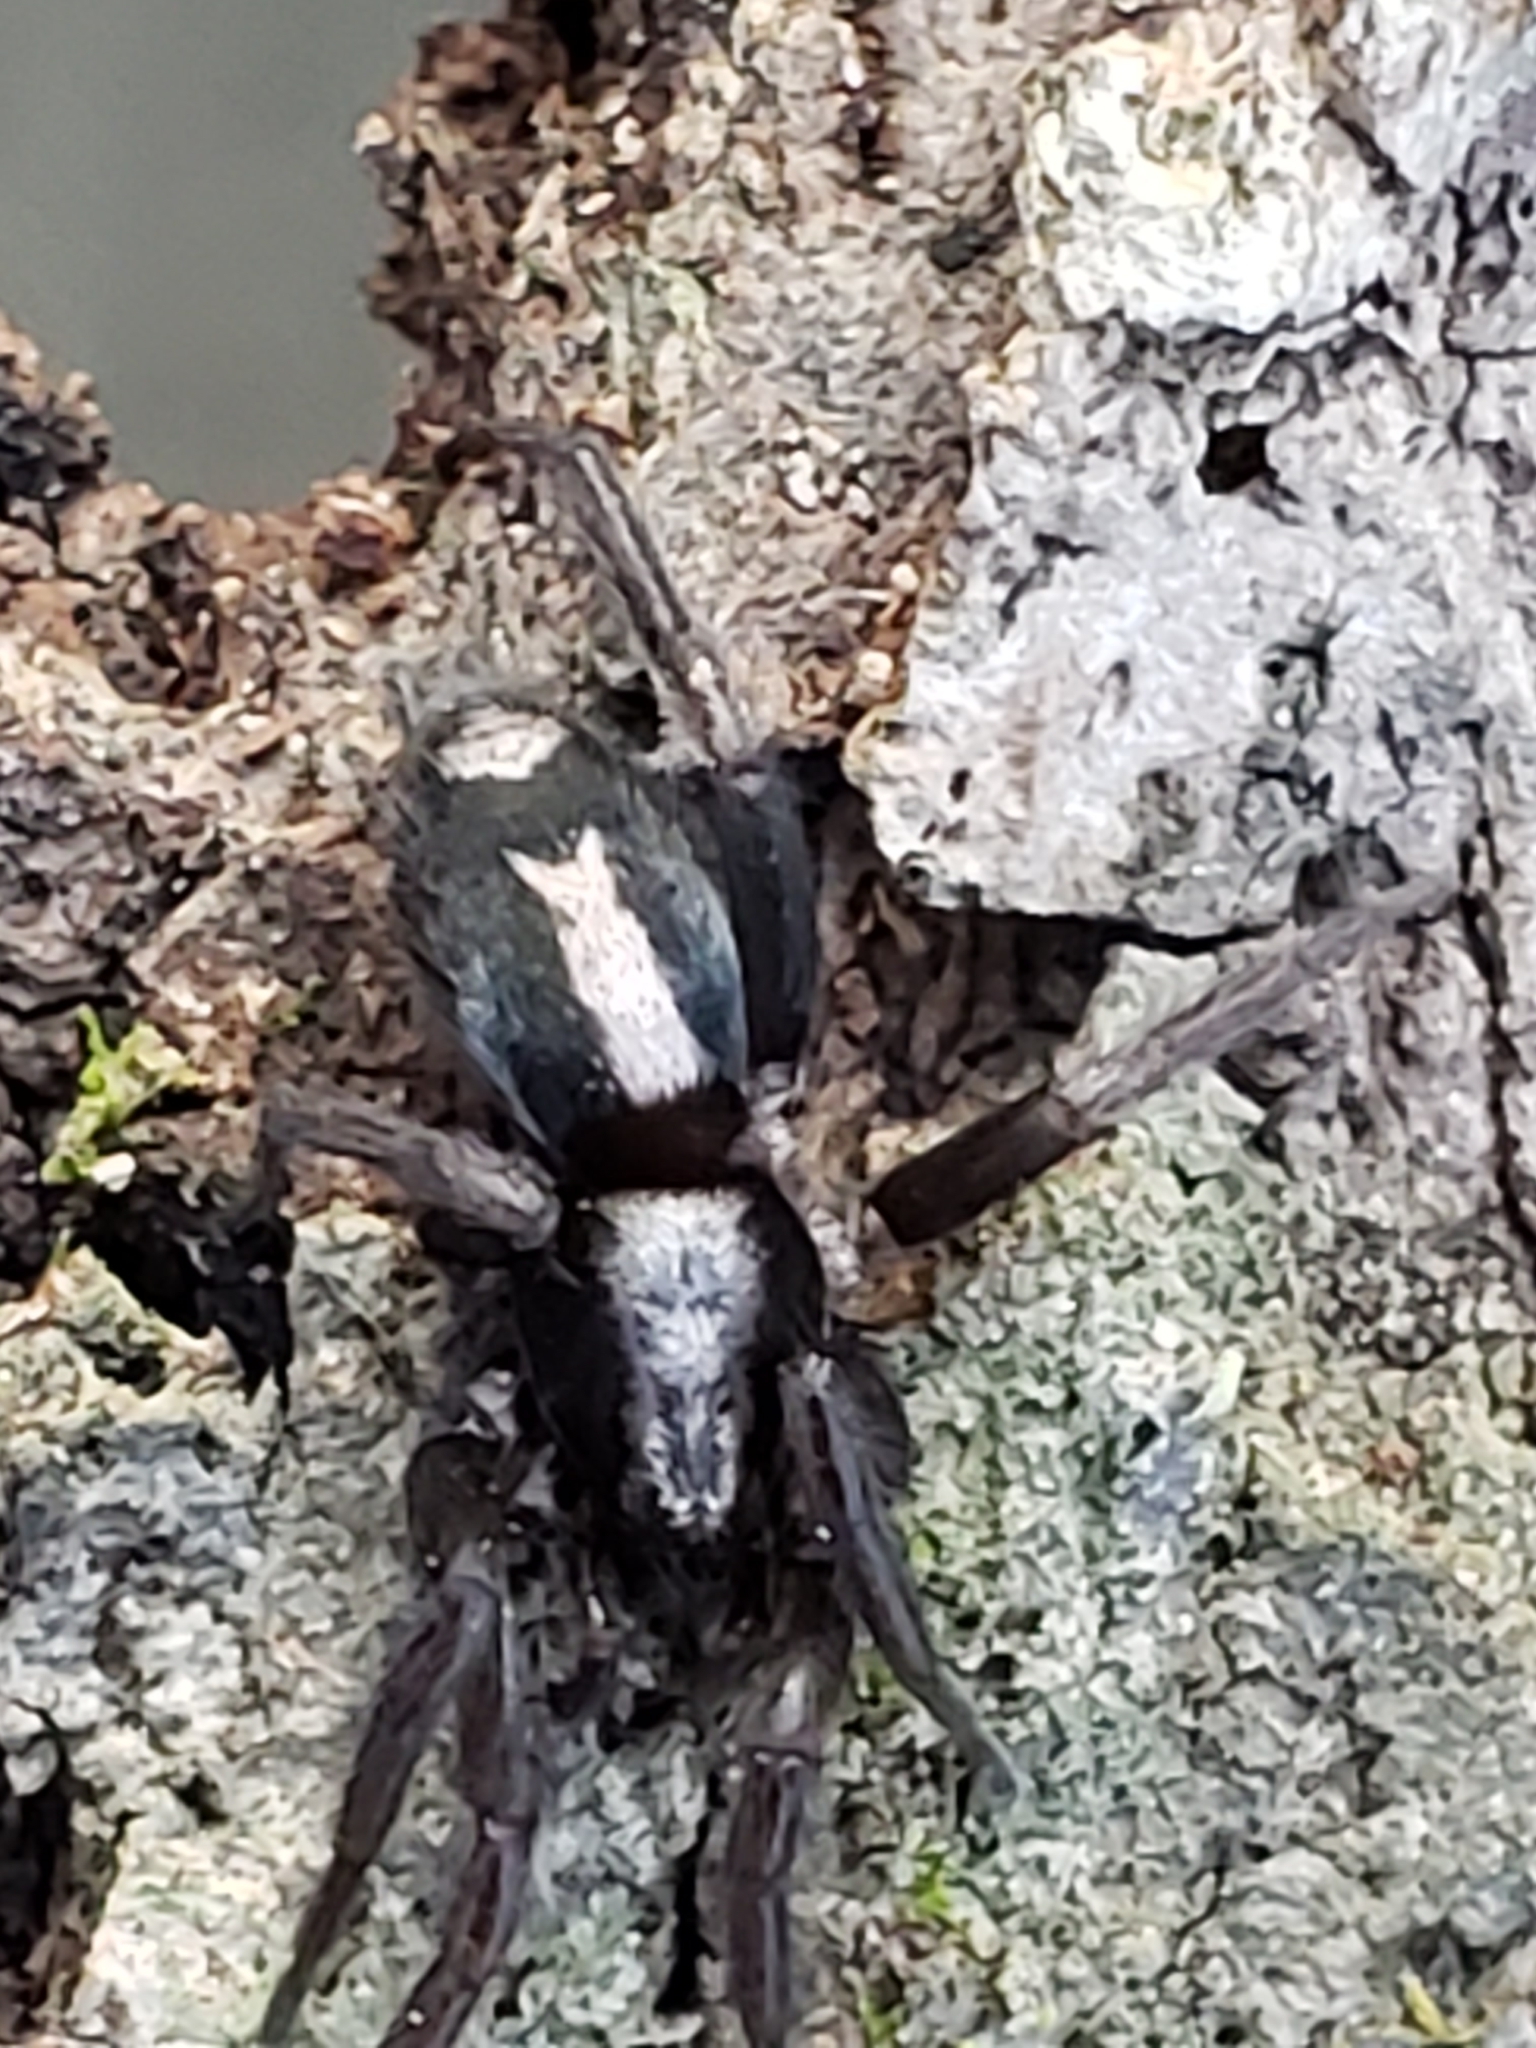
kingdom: Animalia
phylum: Arthropoda
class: Arachnida
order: Araneae
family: Gnaphosidae
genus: Herpyllus
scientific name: Herpyllus ecclesiasticus
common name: Eastern parson spider
